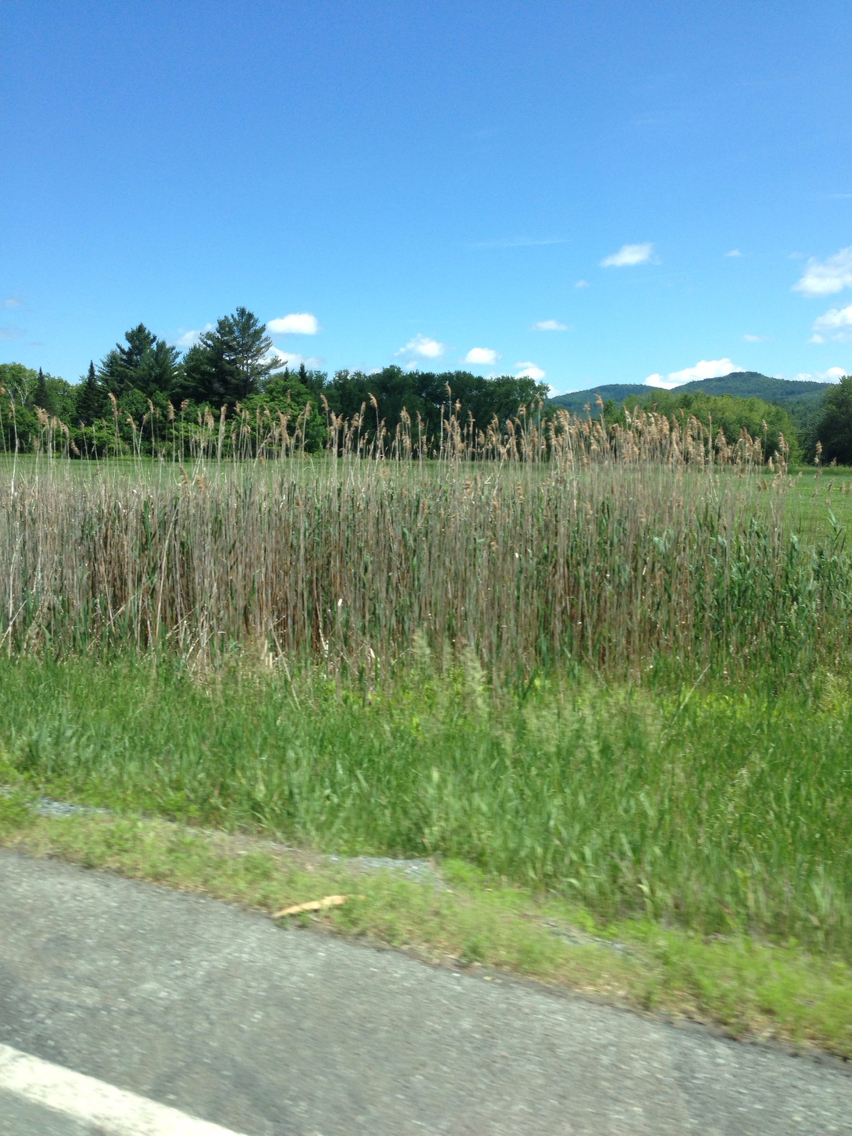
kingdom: Plantae
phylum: Tracheophyta
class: Liliopsida
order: Poales
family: Poaceae
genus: Phragmites
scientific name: Phragmites australis
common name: Common reed
